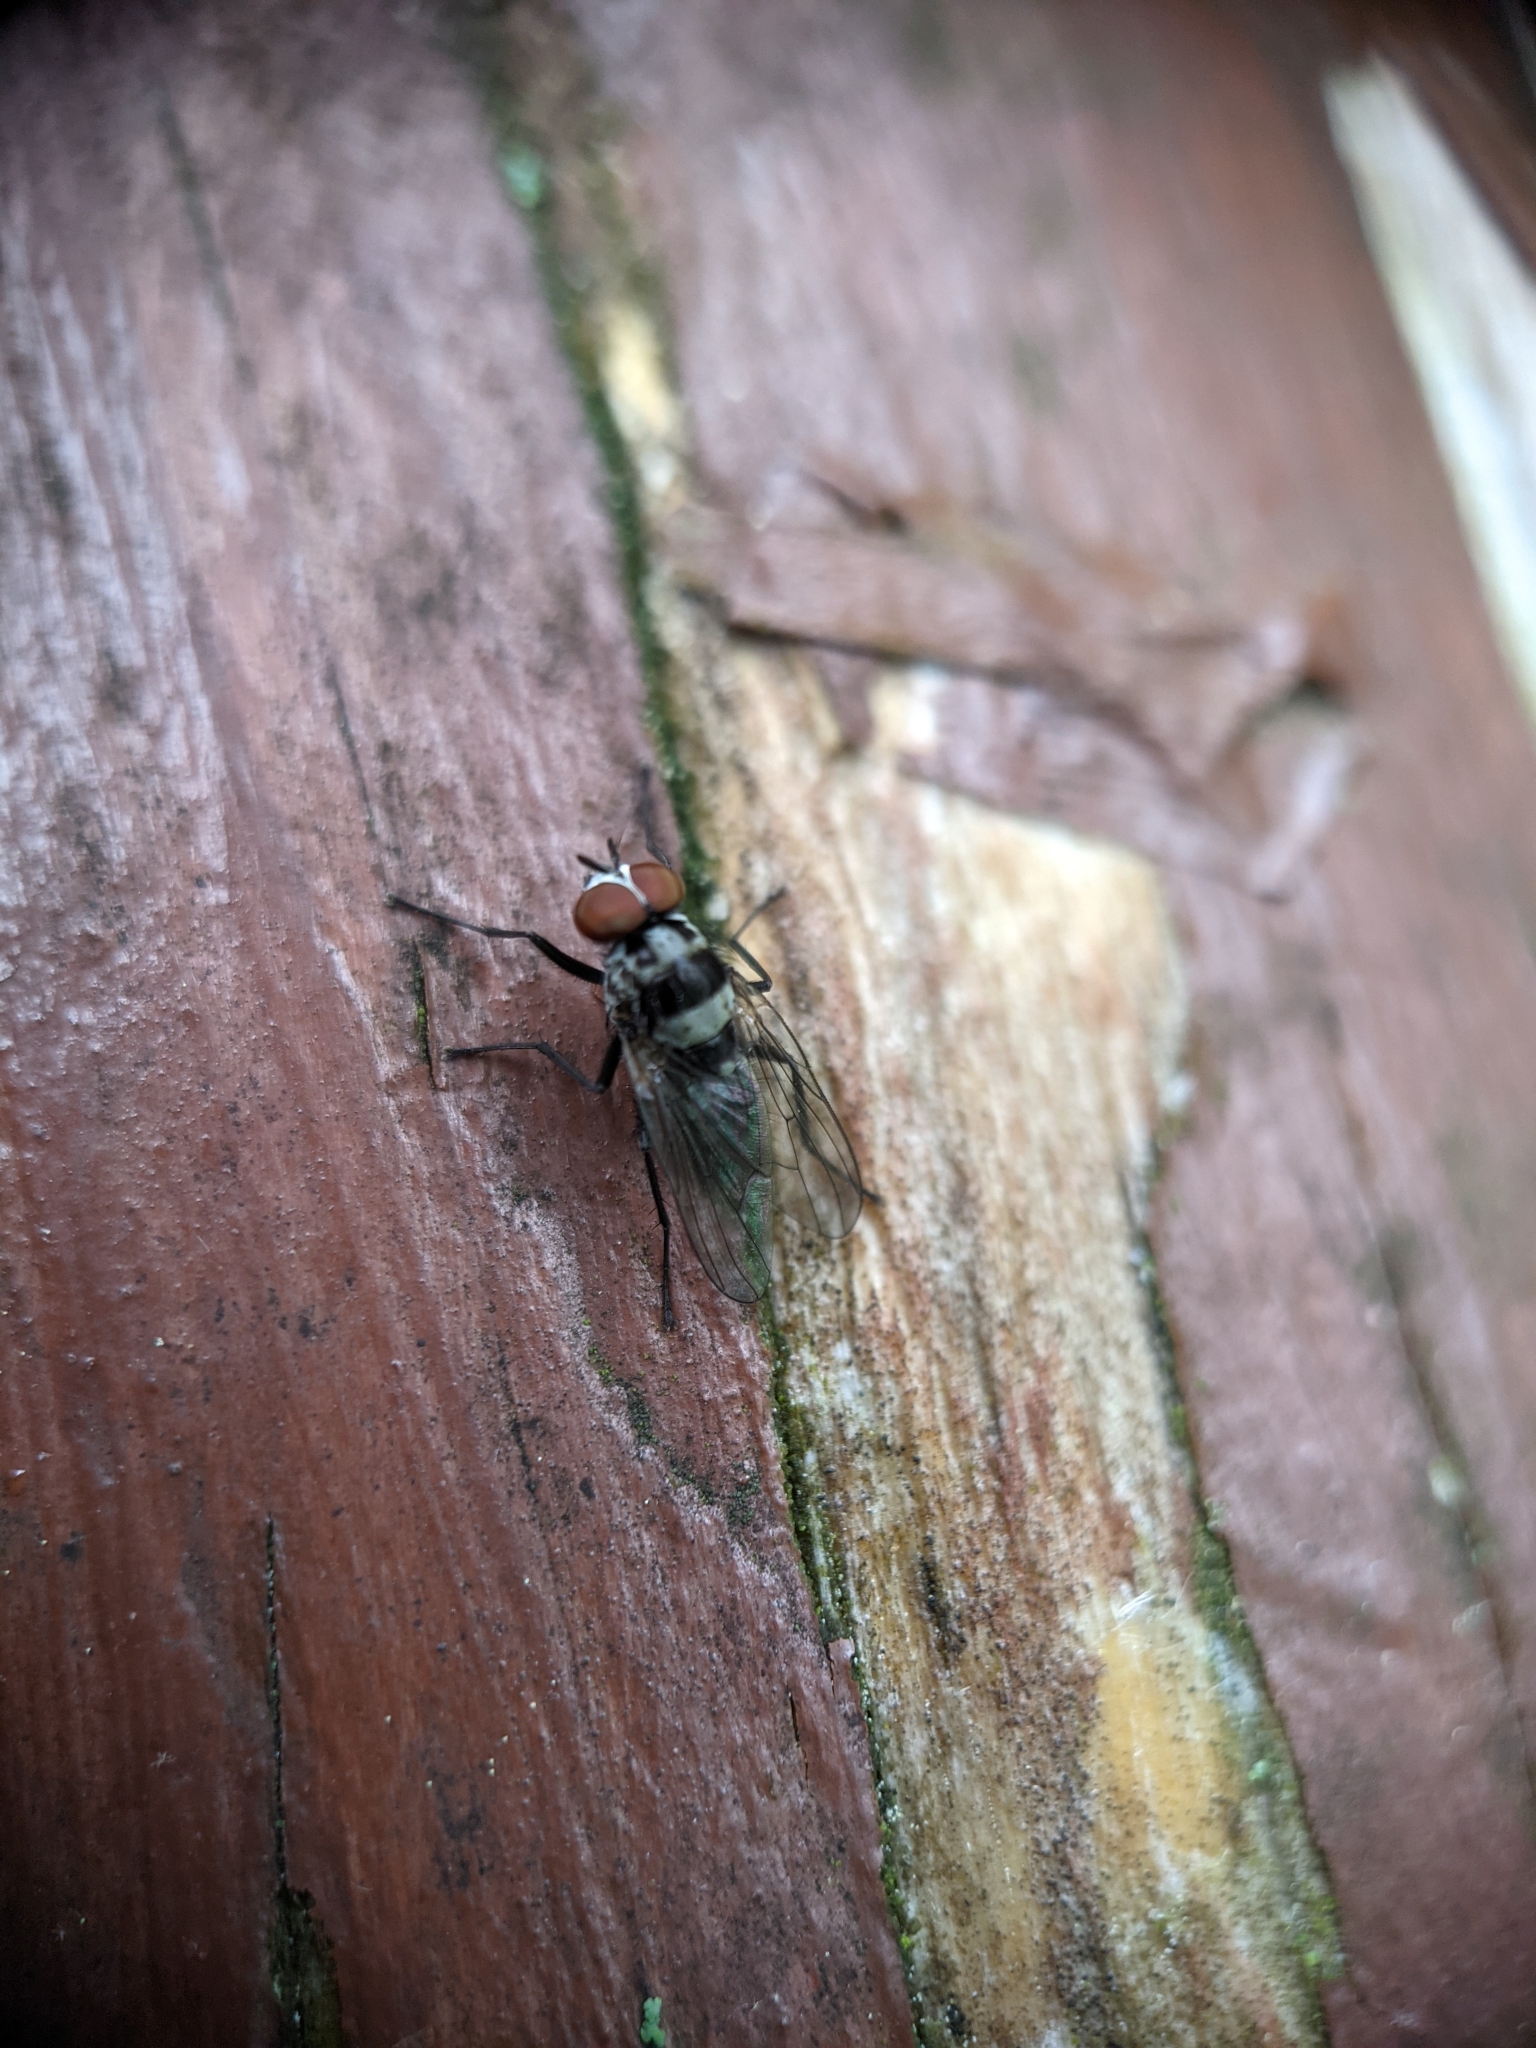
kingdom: Animalia
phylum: Arthropoda
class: Insecta
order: Diptera
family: Anthomyiidae
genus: Anthomyia
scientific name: Anthomyia oculifera
